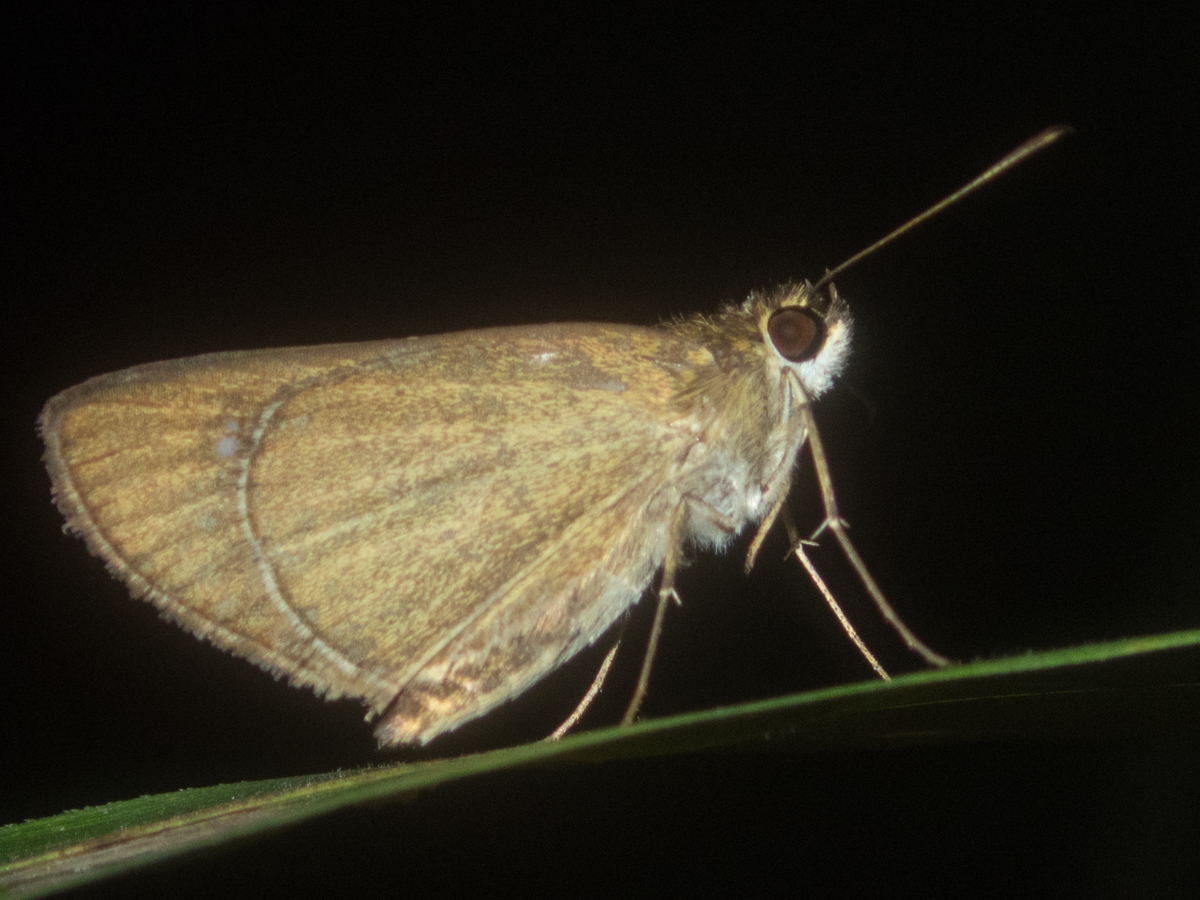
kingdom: Animalia
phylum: Arthropoda
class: Insecta
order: Lepidoptera
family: Hesperiidae
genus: Suada
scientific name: Suada swerga
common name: Grass bob
